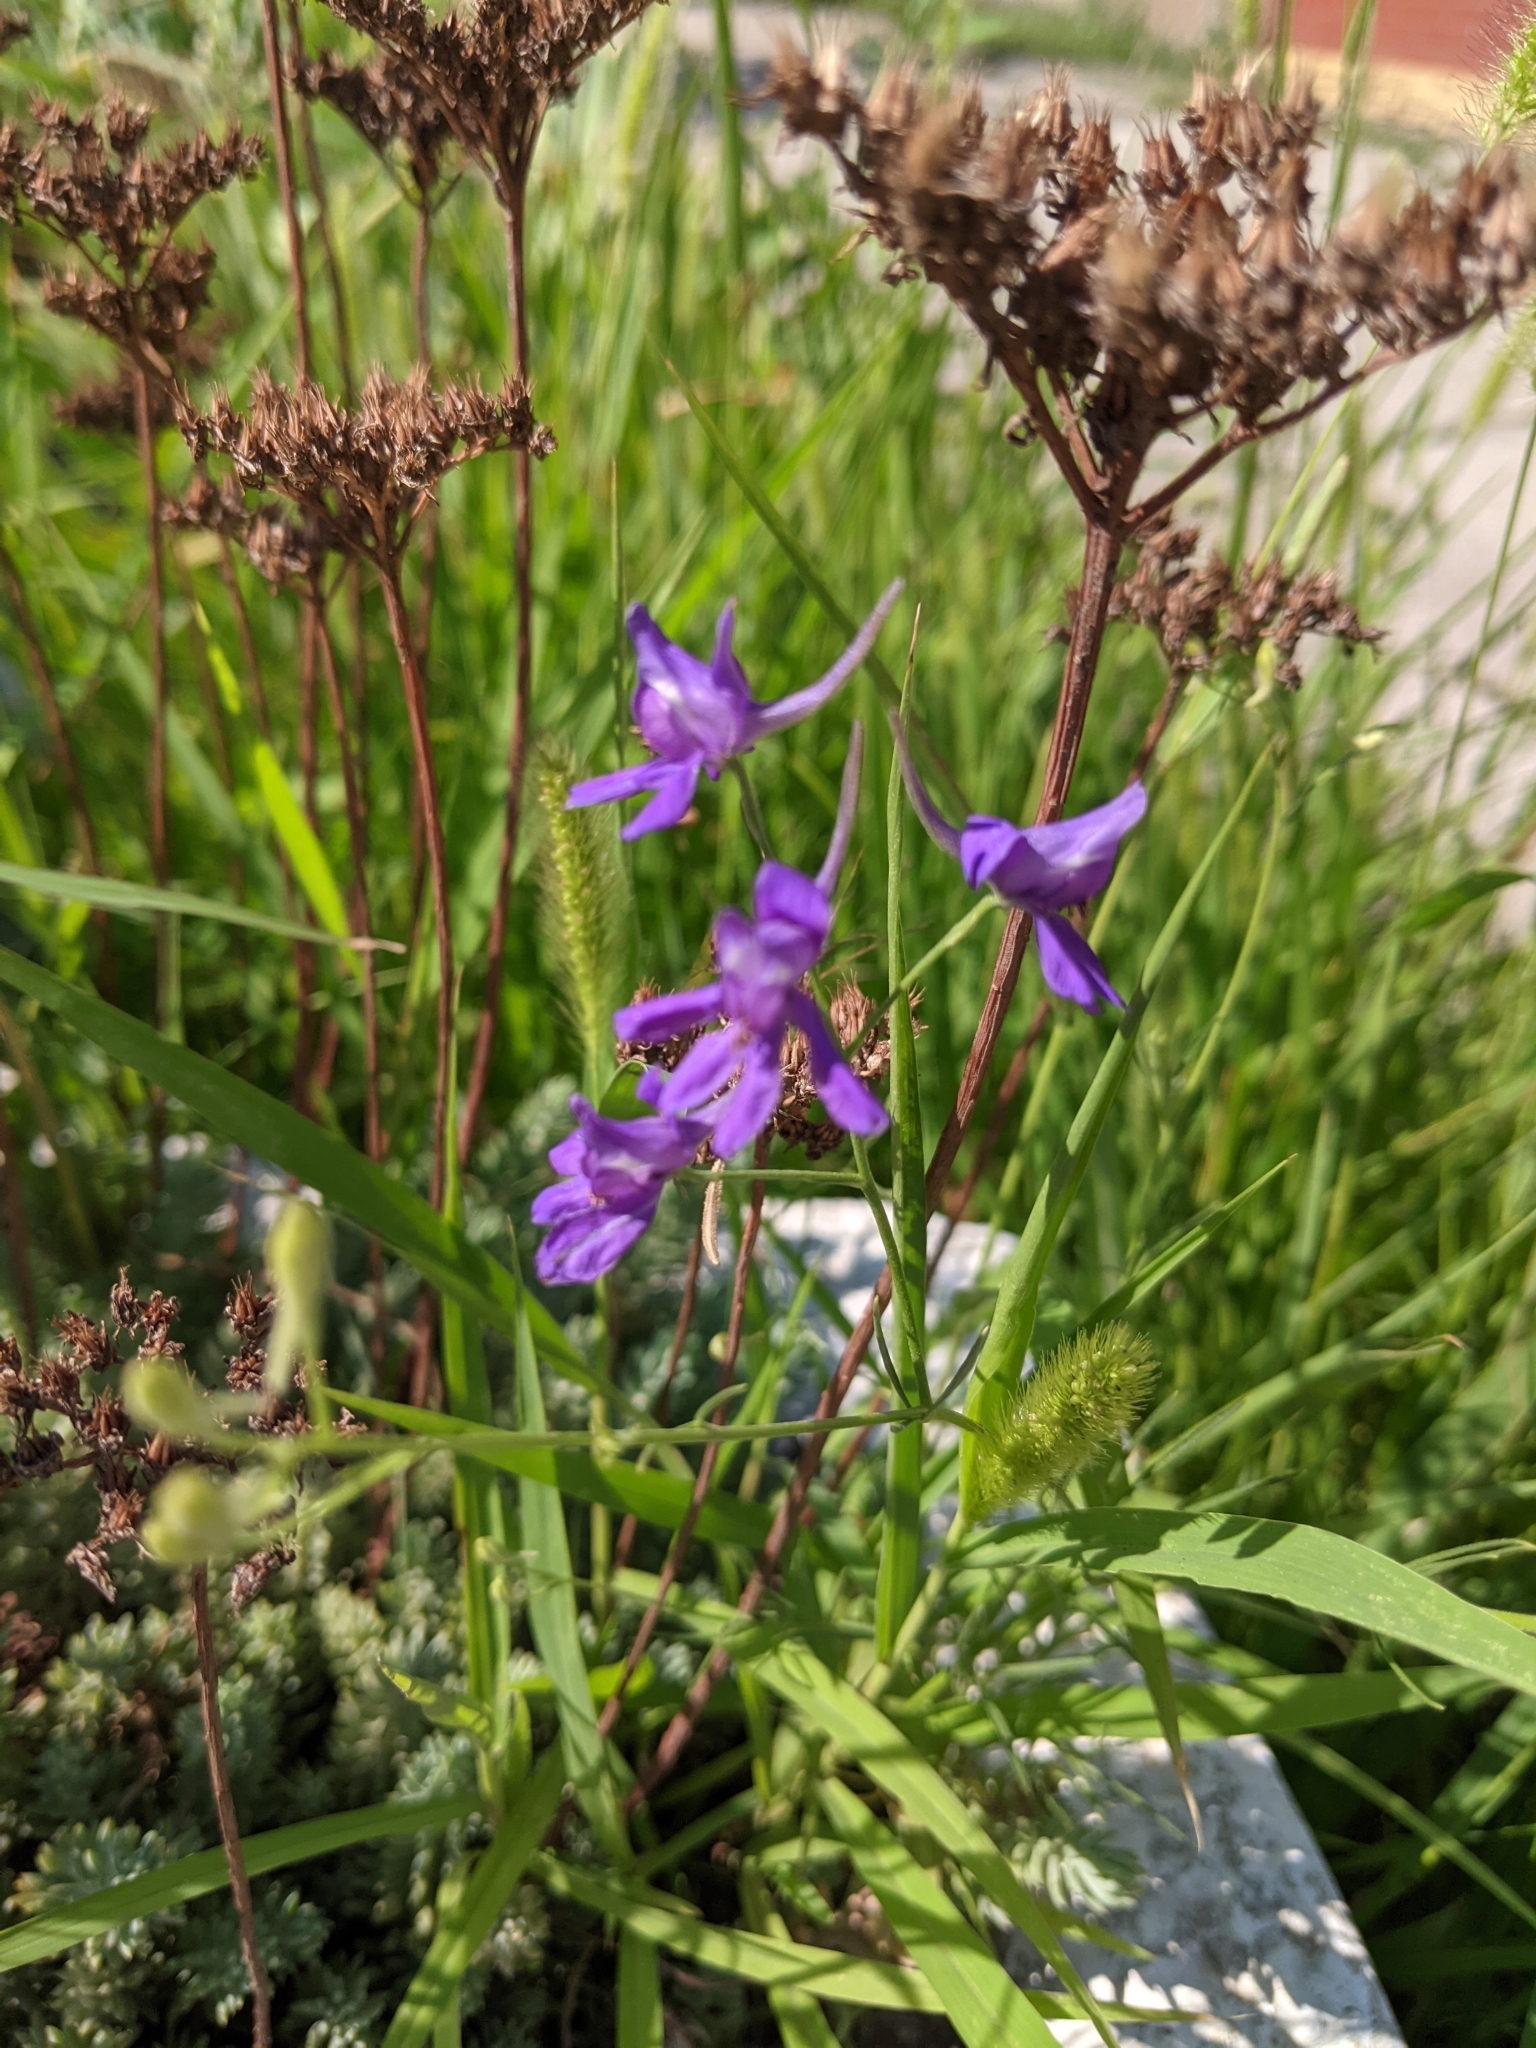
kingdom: Plantae
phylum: Tracheophyta
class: Magnoliopsida
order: Ranunculales
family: Ranunculaceae
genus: Delphinium
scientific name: Delphinium consolida
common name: Branching larkspur
